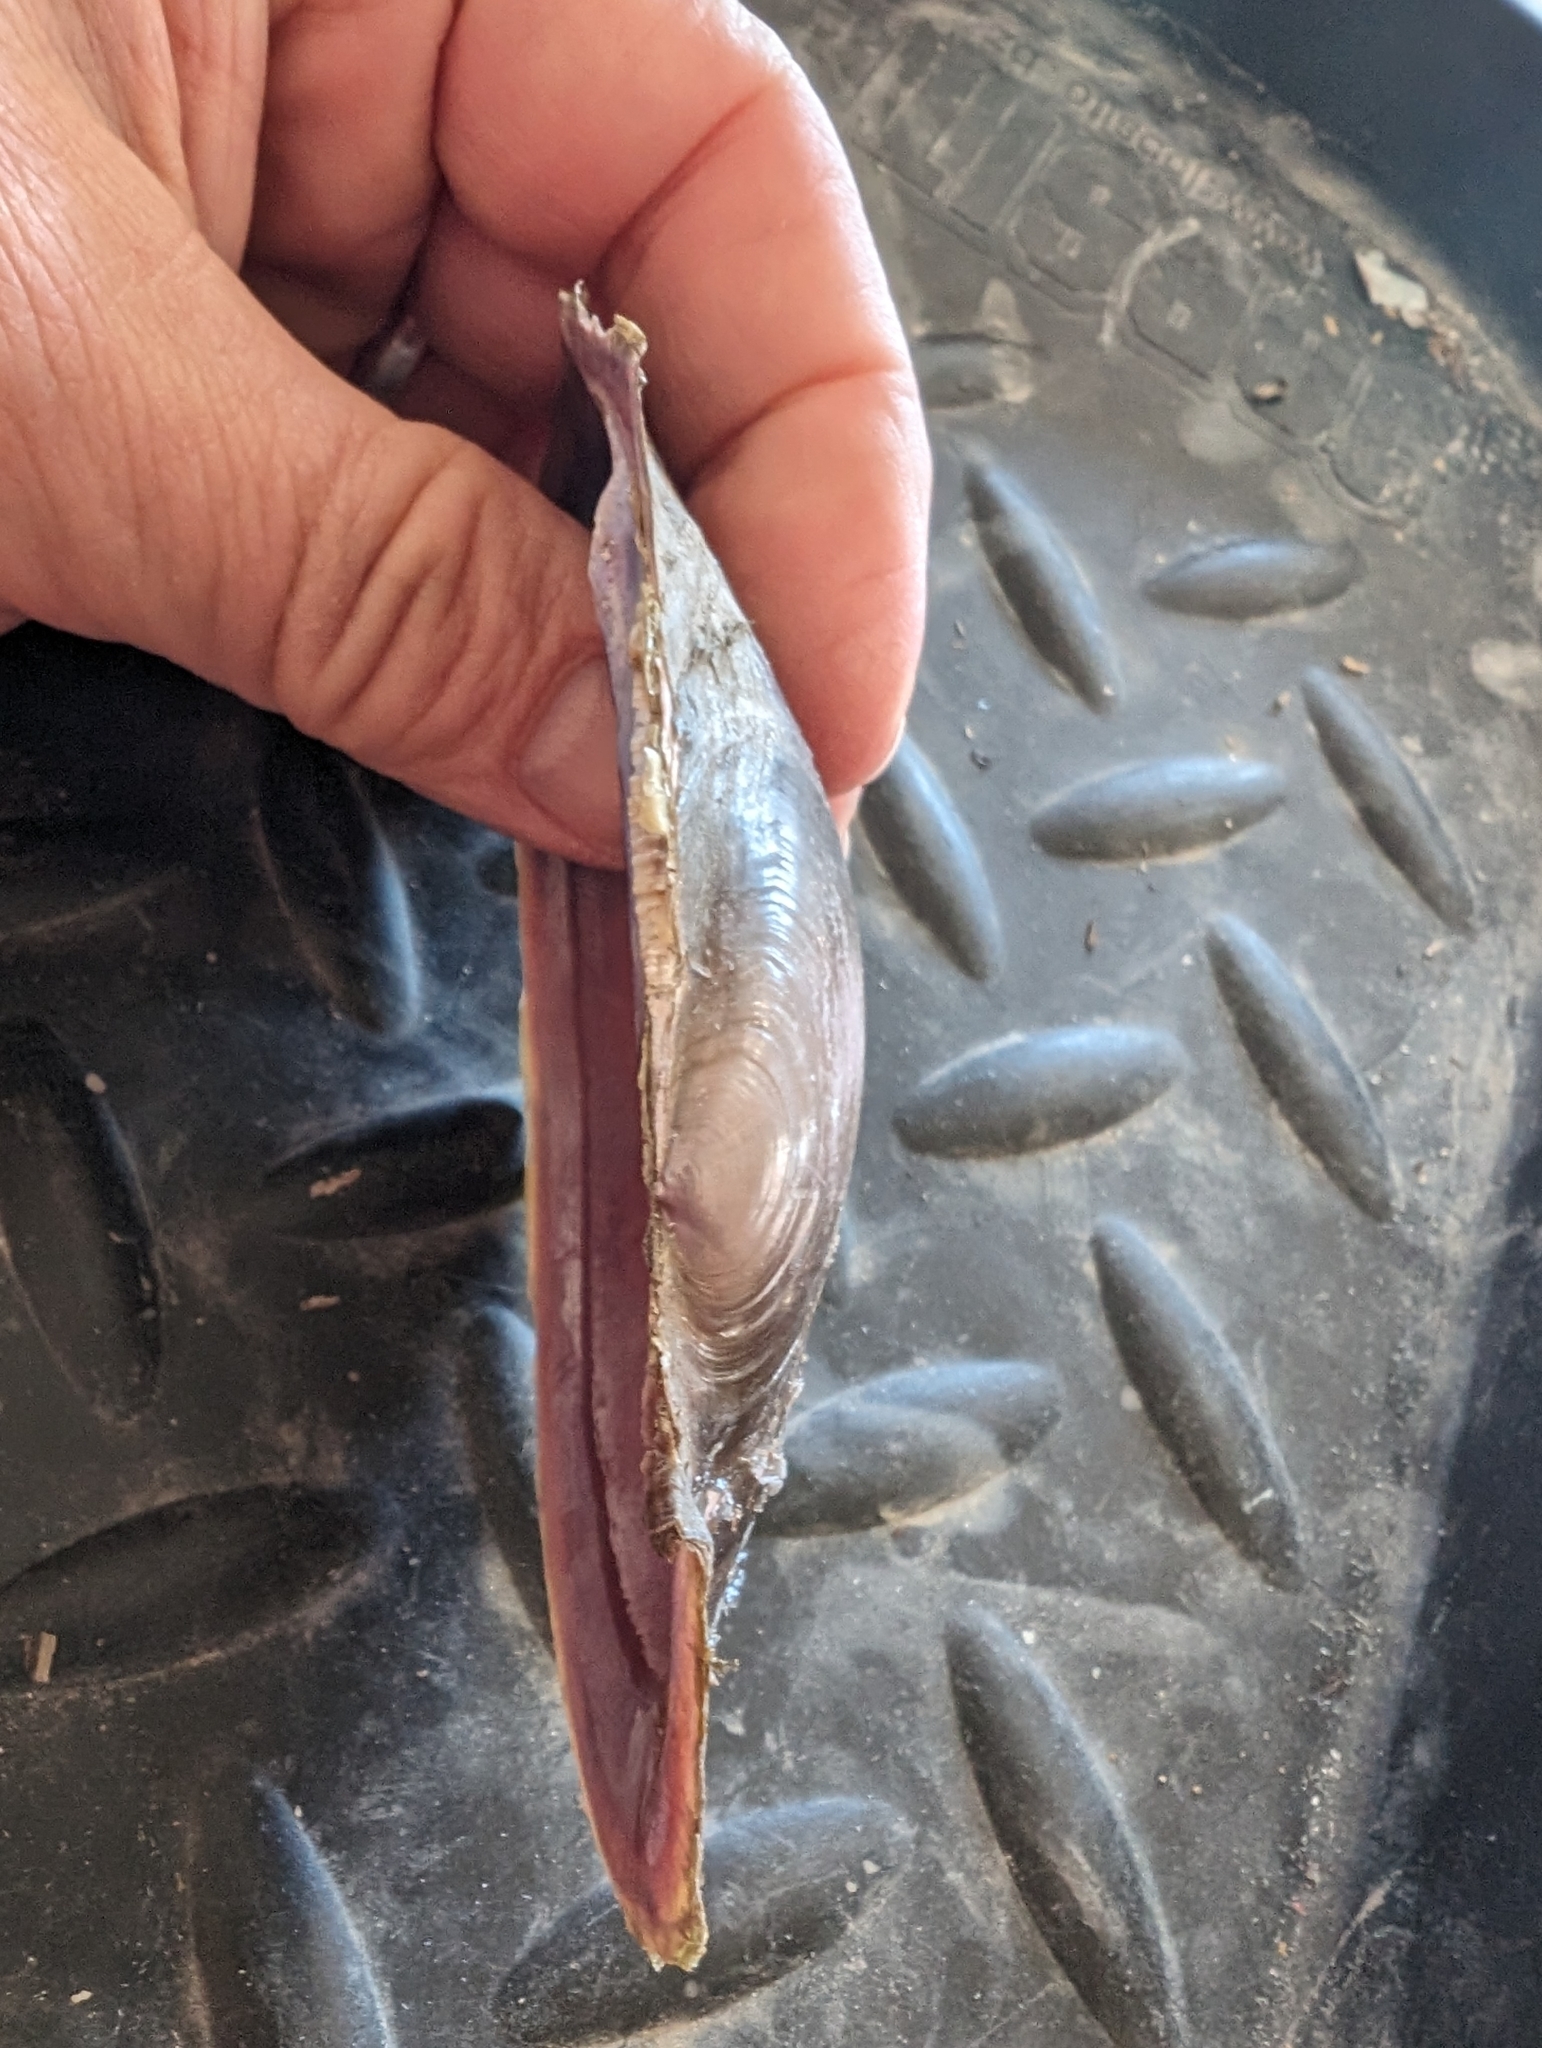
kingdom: Animalia
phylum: Mollusca
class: Bivalvia
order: Unionida
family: Unionidae
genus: Potamilus
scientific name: Potamilus ohiensis
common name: Pink papershell
